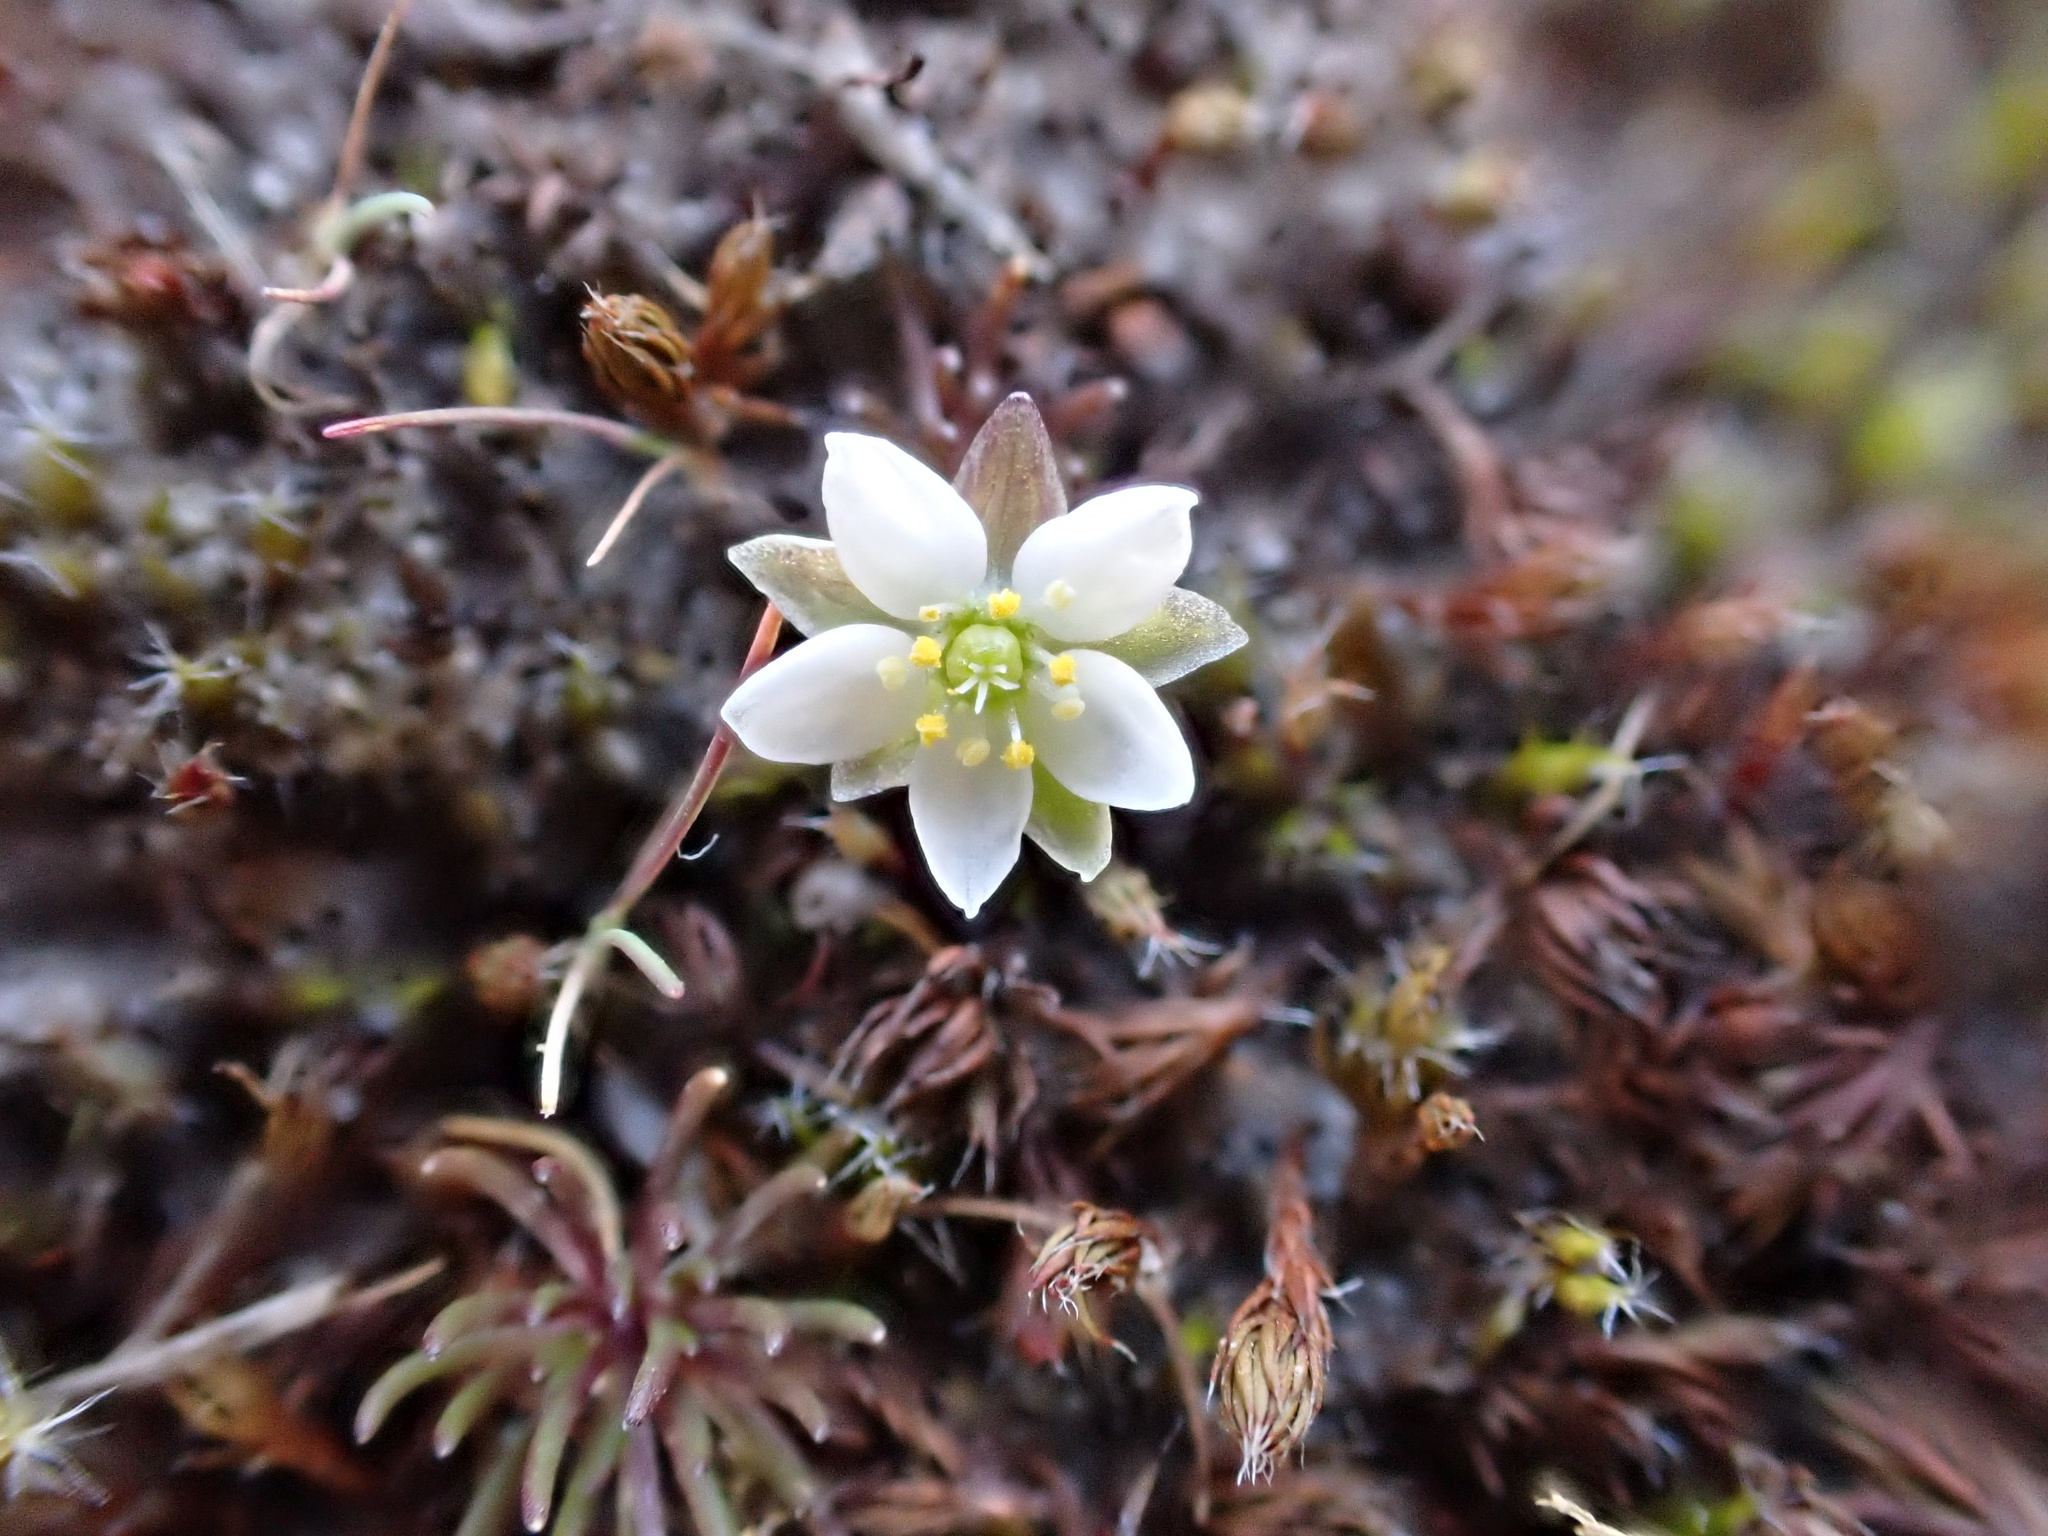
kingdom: Plantae
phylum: Tracheophyta
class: Magnoliopsida
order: Caryophyllales
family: Caryophyllaceae
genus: Spergula
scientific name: Spergula morisonii
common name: Pearlwort spurrey
